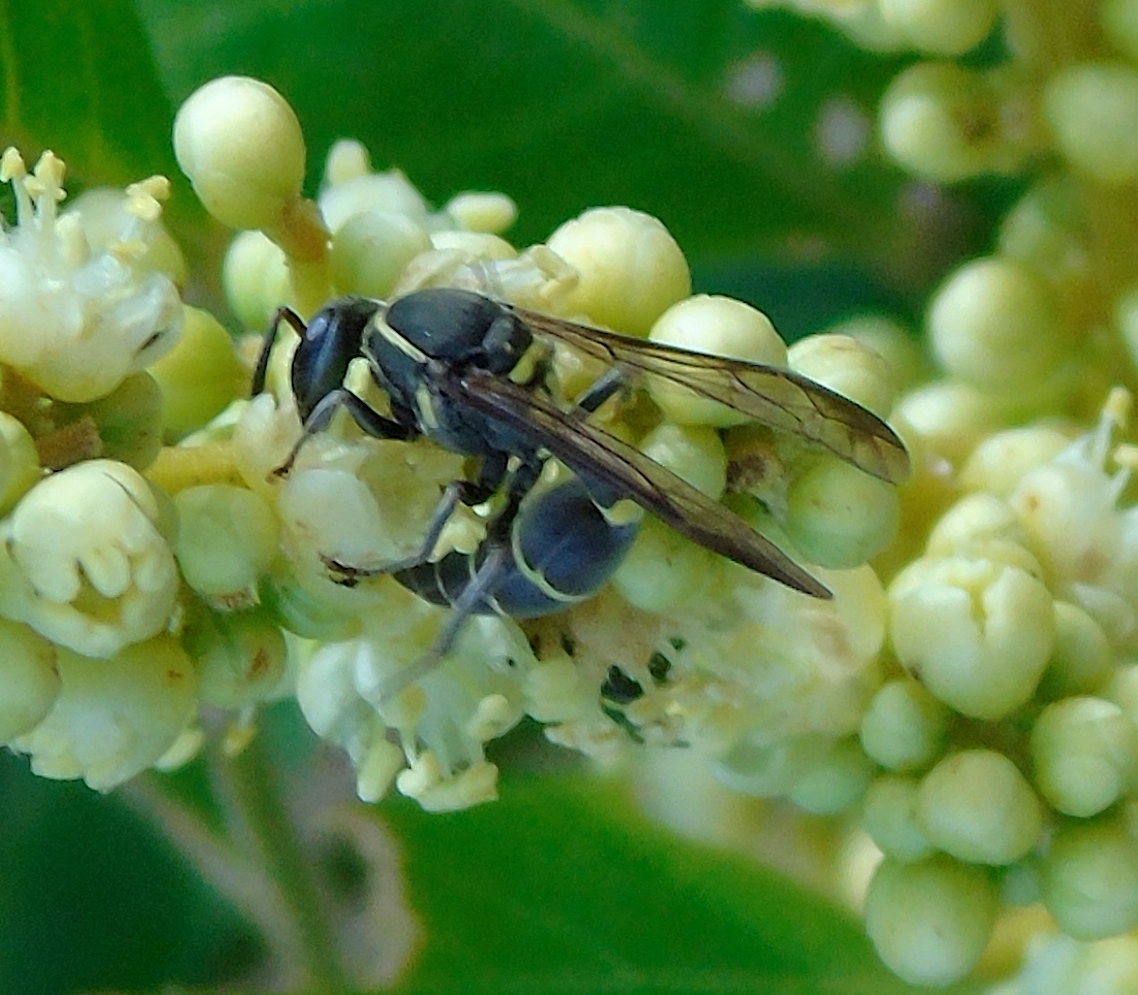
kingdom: Animalia
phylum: Arthropoda
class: Insecta
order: Hymenoptera
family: Vespidae
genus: Myrapetra
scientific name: Myrapetra
